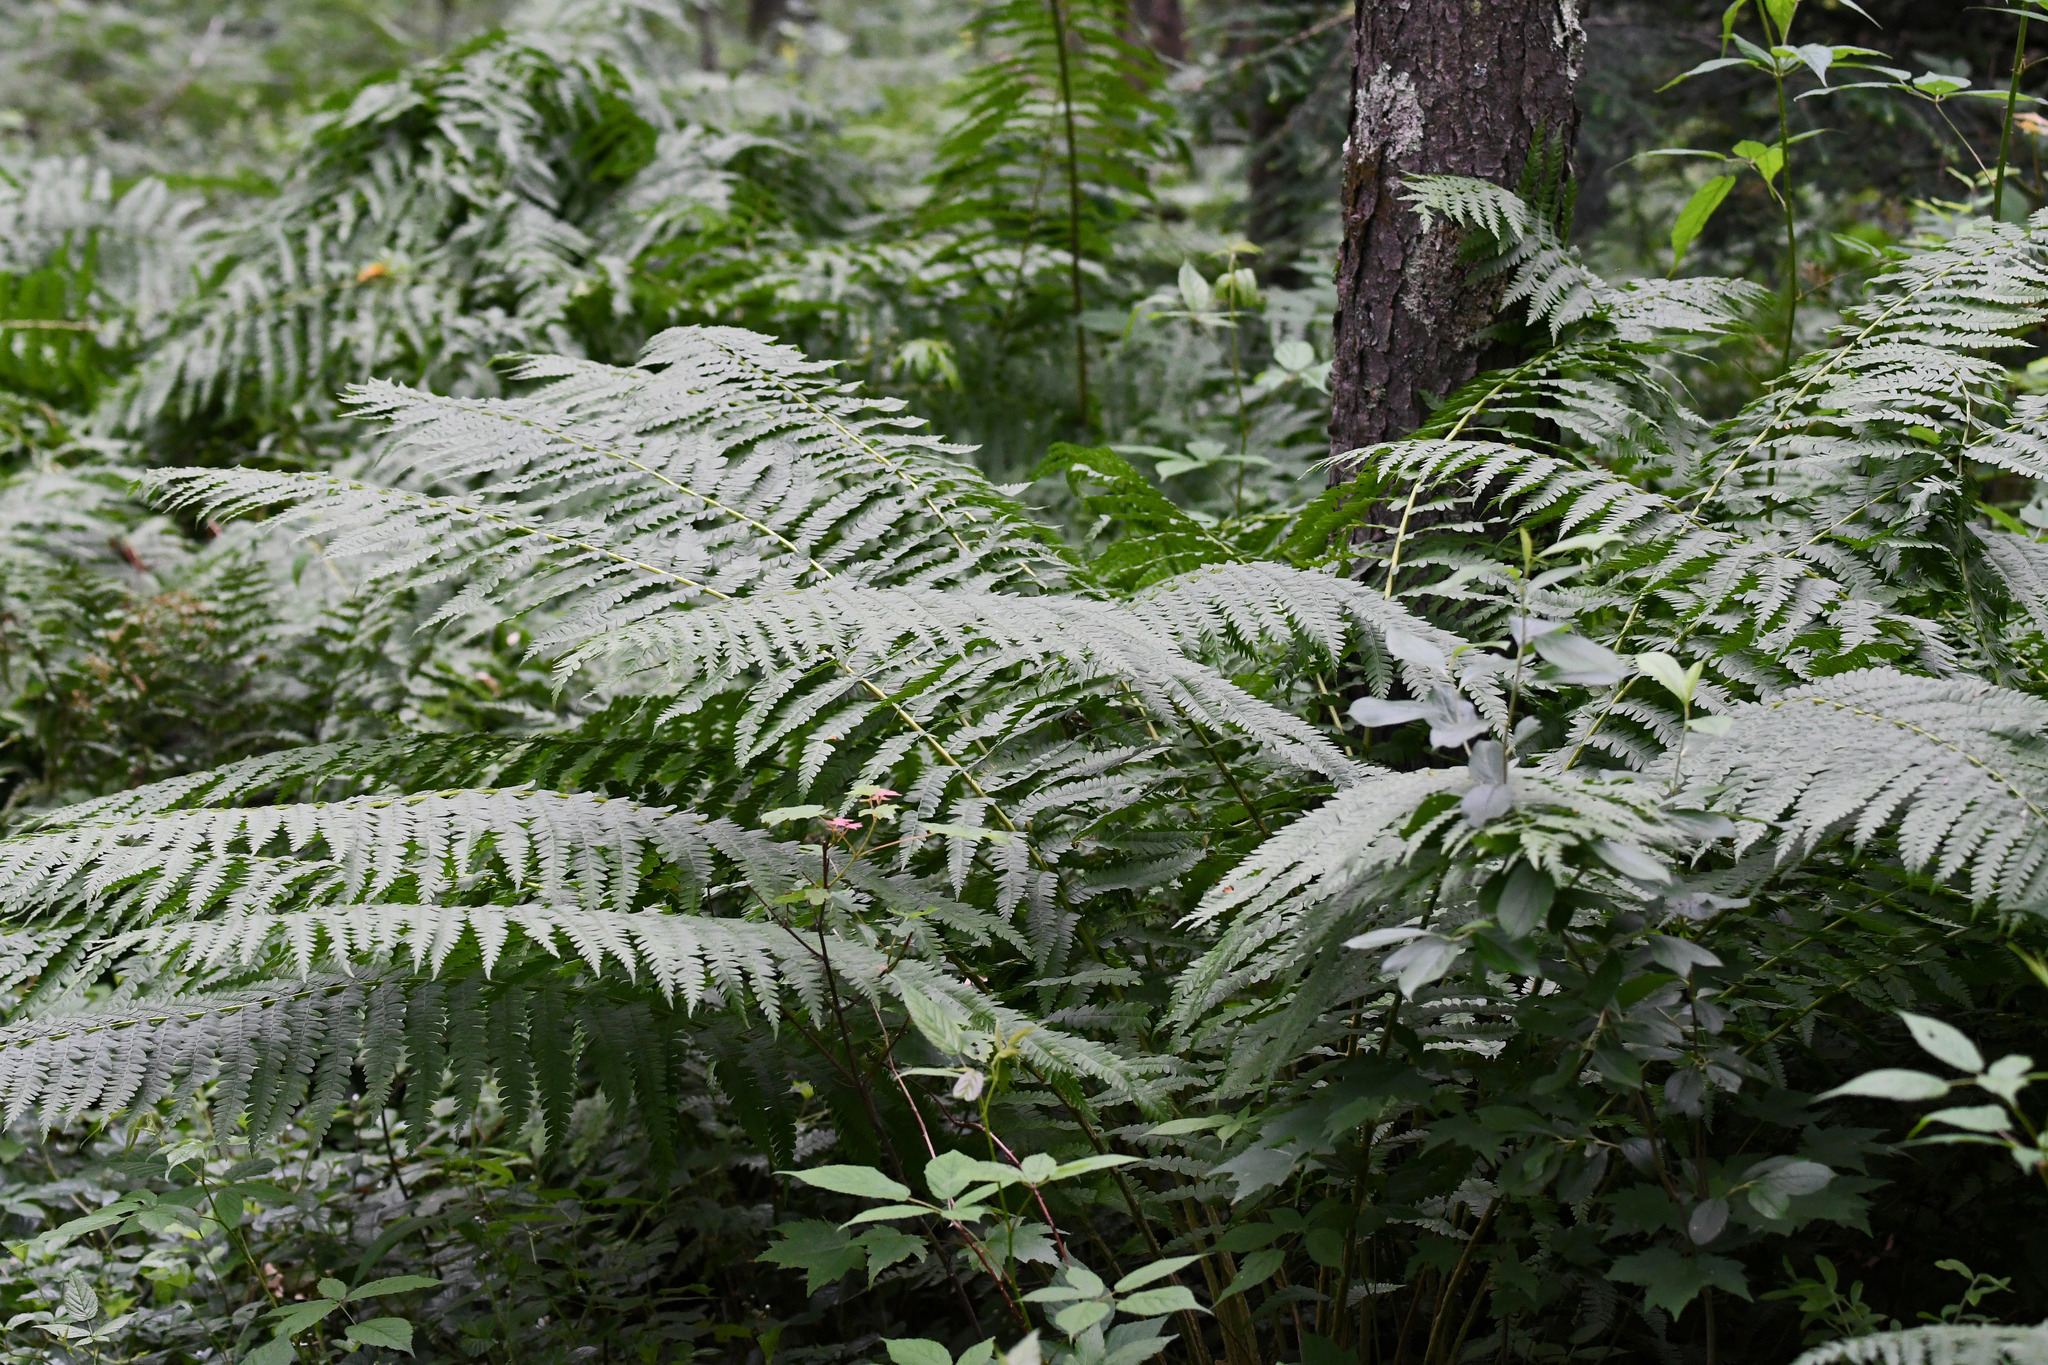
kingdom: Plantae
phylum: Tracheophyta
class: Polypodiopsida
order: Osmundales
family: Osmundaceae
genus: Osmundastrum
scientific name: Osmundastrum cinnamomeum
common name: Cinnamon fern
